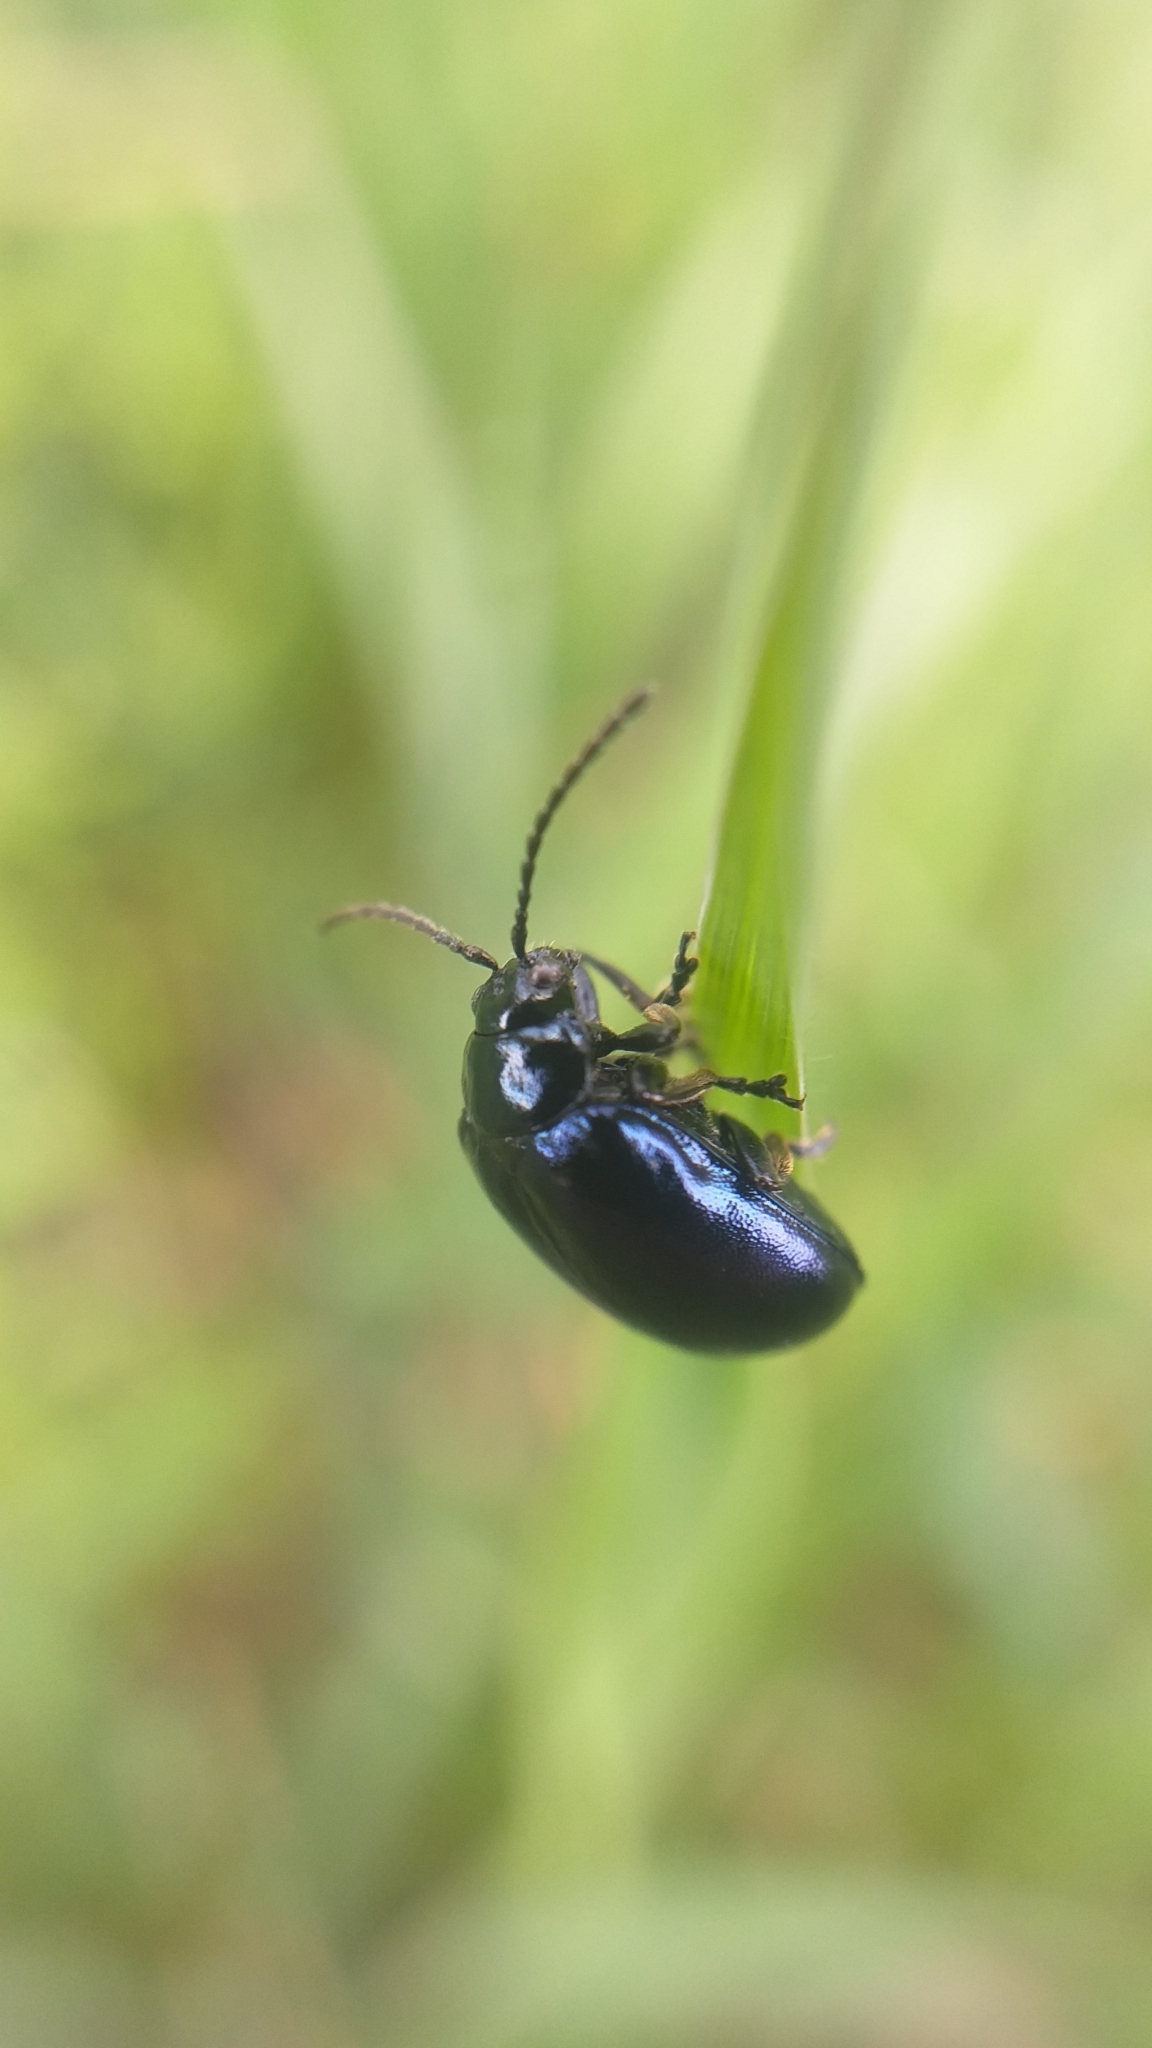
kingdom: Animalia
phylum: Arthropoda
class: Insecta
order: Coleoptera
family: Chrysomelidae
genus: Agelastica
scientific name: Agelastica alni
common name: Alder leaf beetle
